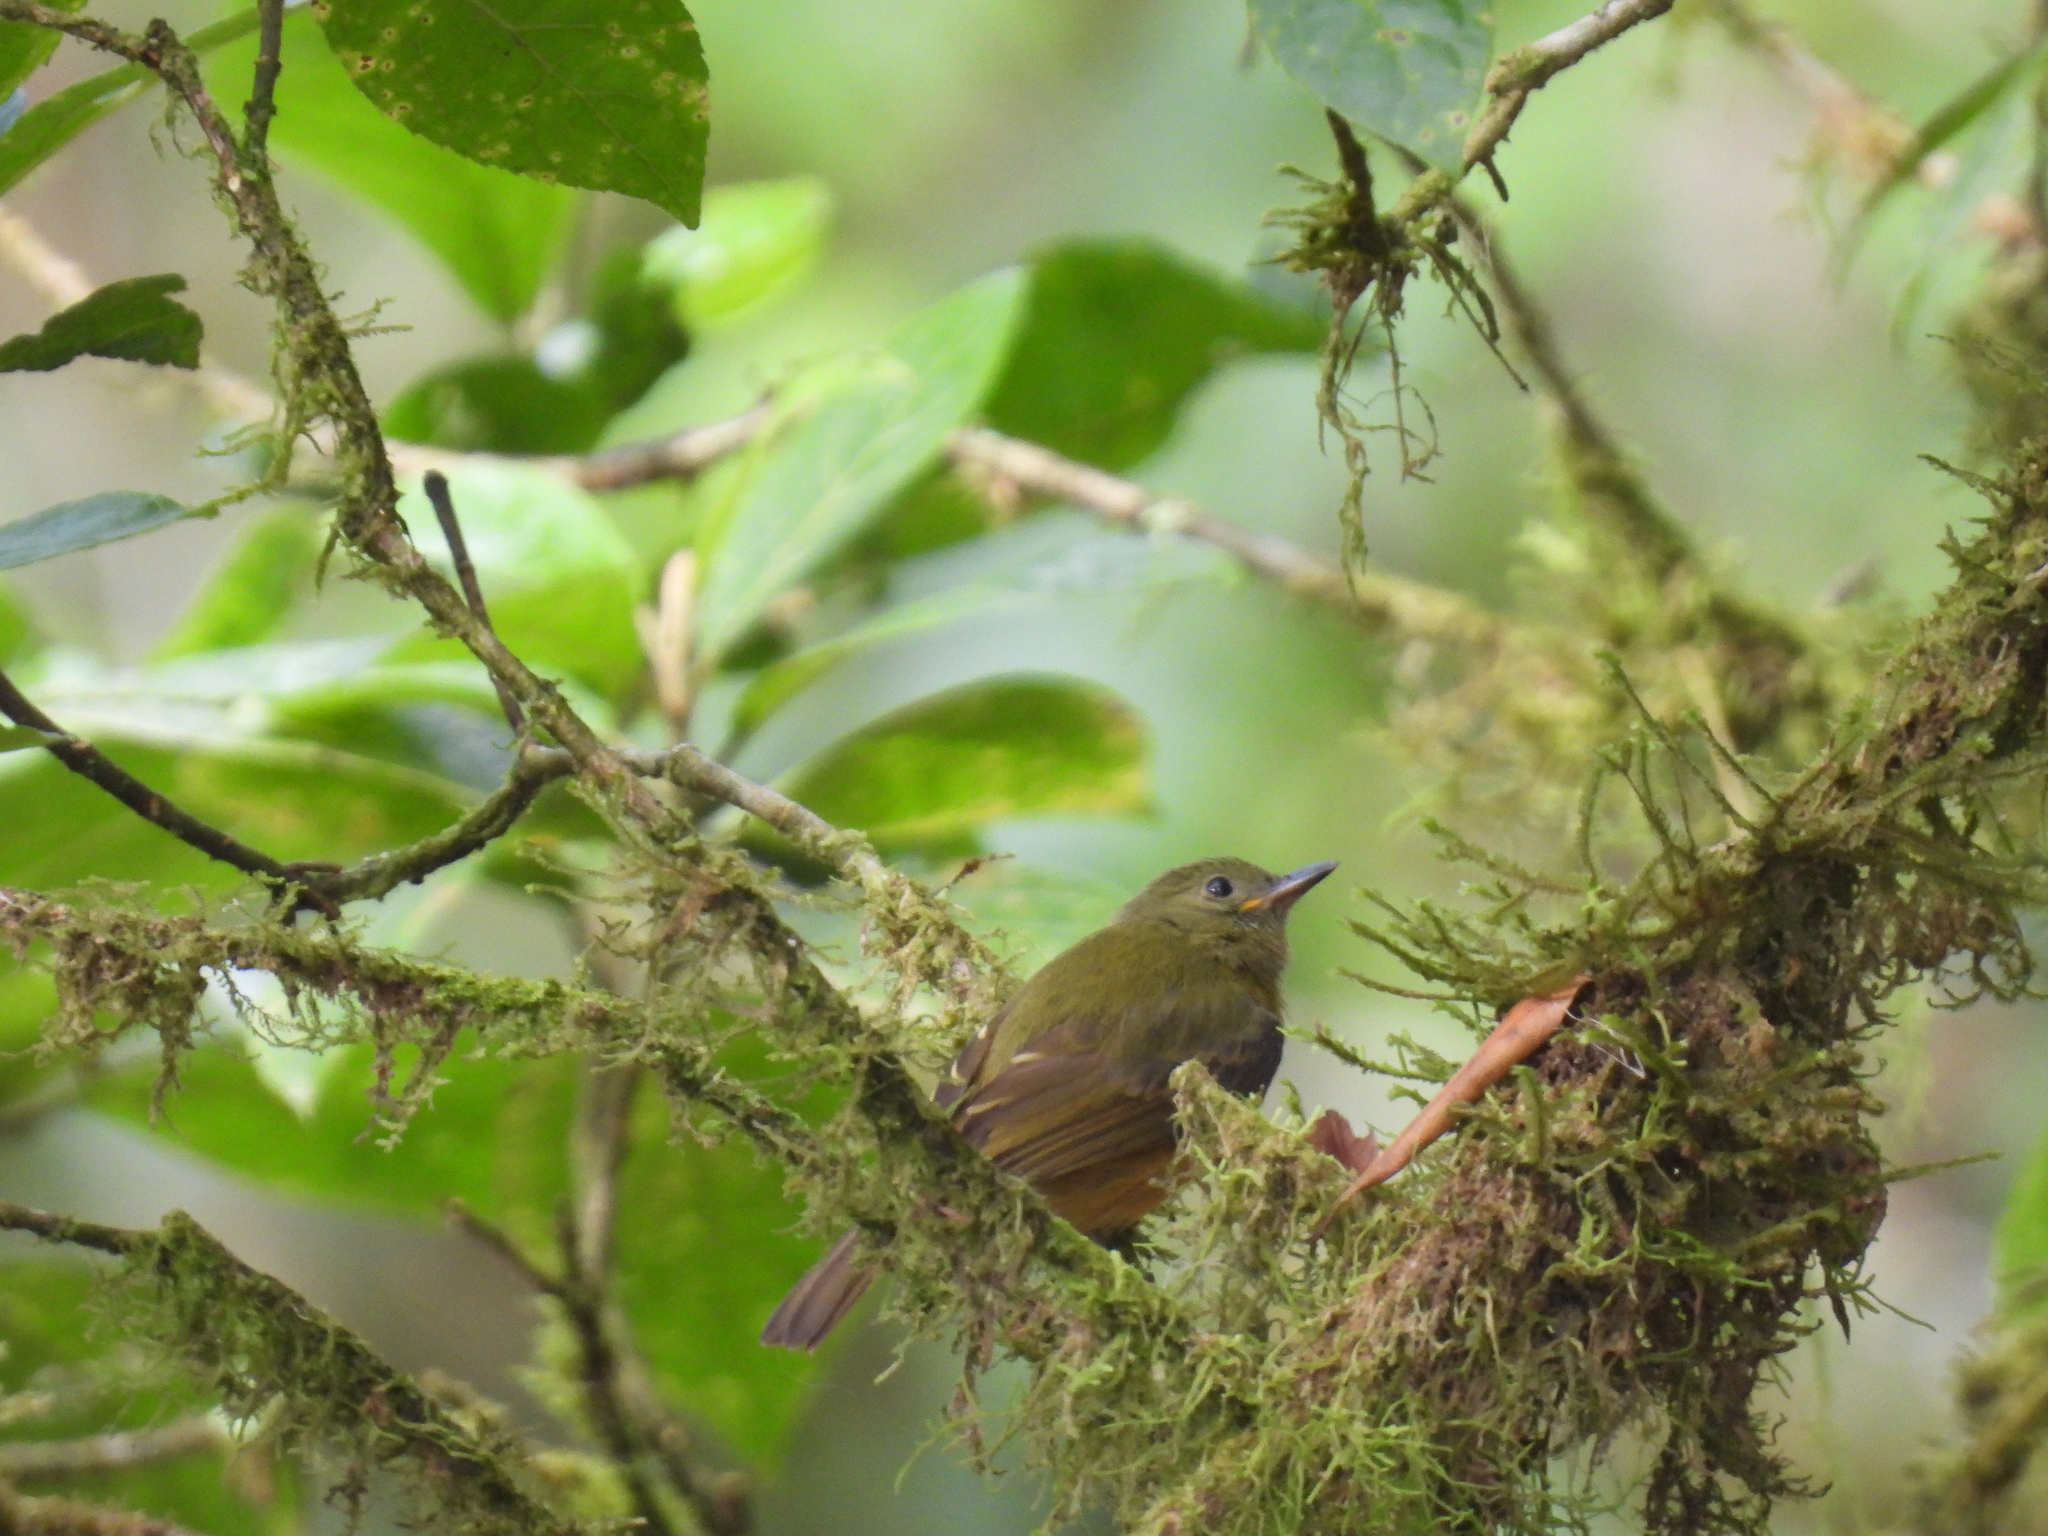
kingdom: Animalia
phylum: Chordata
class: Aves
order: Passeriformes
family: Tyrannidae
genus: Mionectes
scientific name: Mionectes oleagineus
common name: Ochre-bellied flycatcher
